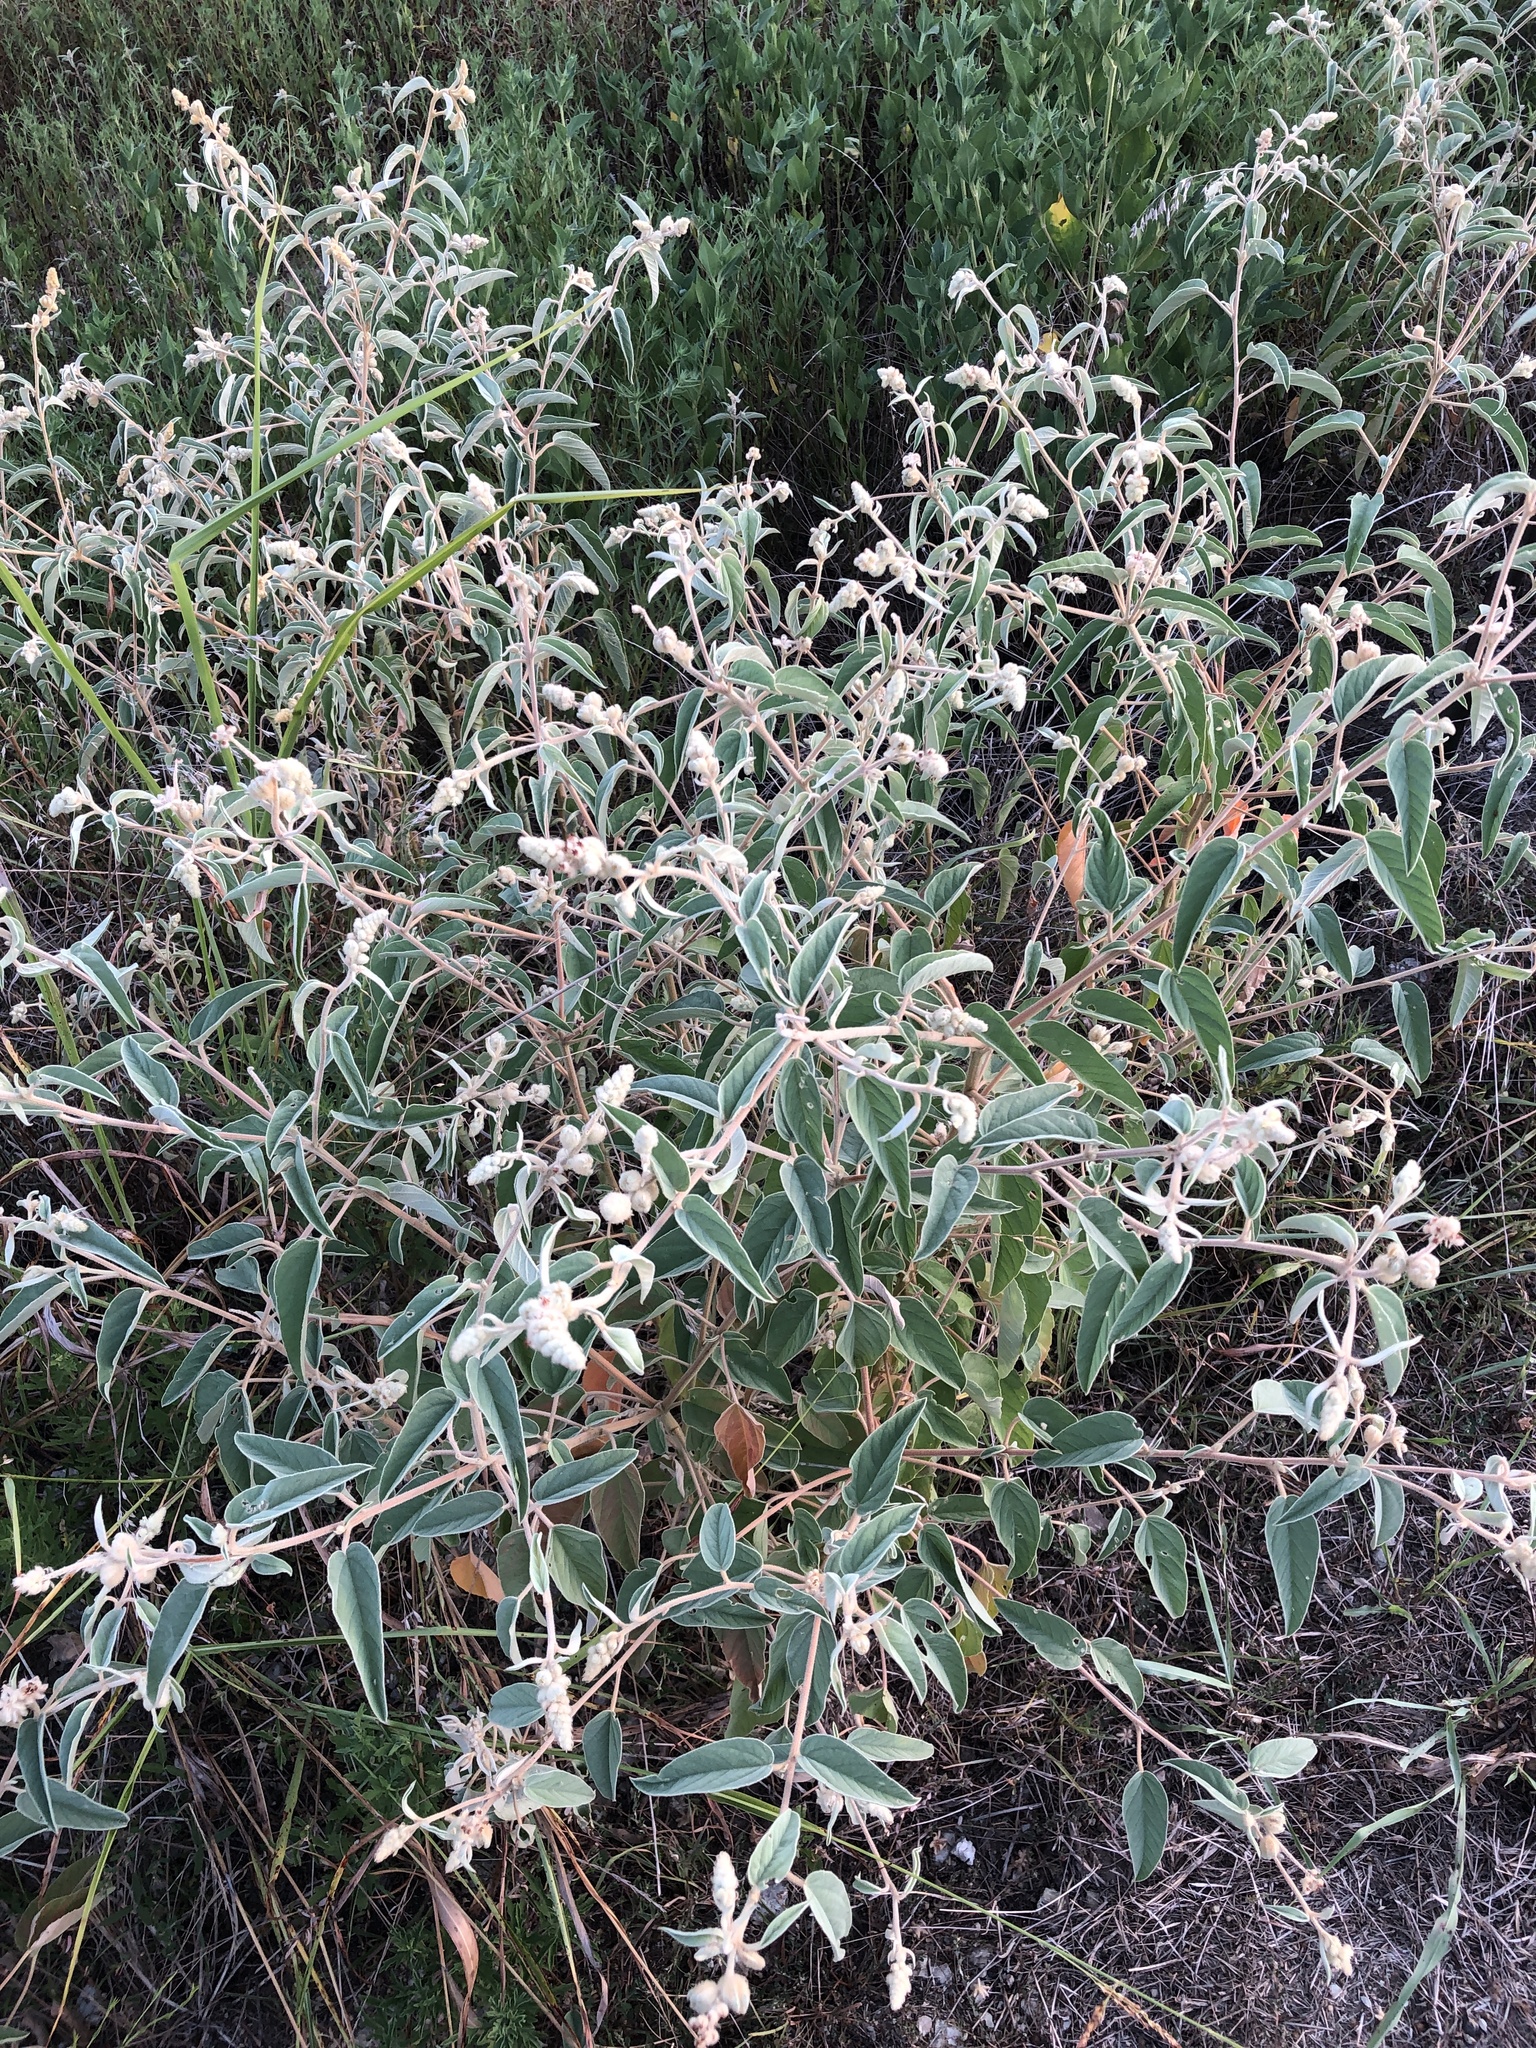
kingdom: Plantae
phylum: Tracheophyta
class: Magnoliopsida
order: Malpighiales
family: Euphorbiaceae
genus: Croton
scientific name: Croton lindheimeri
